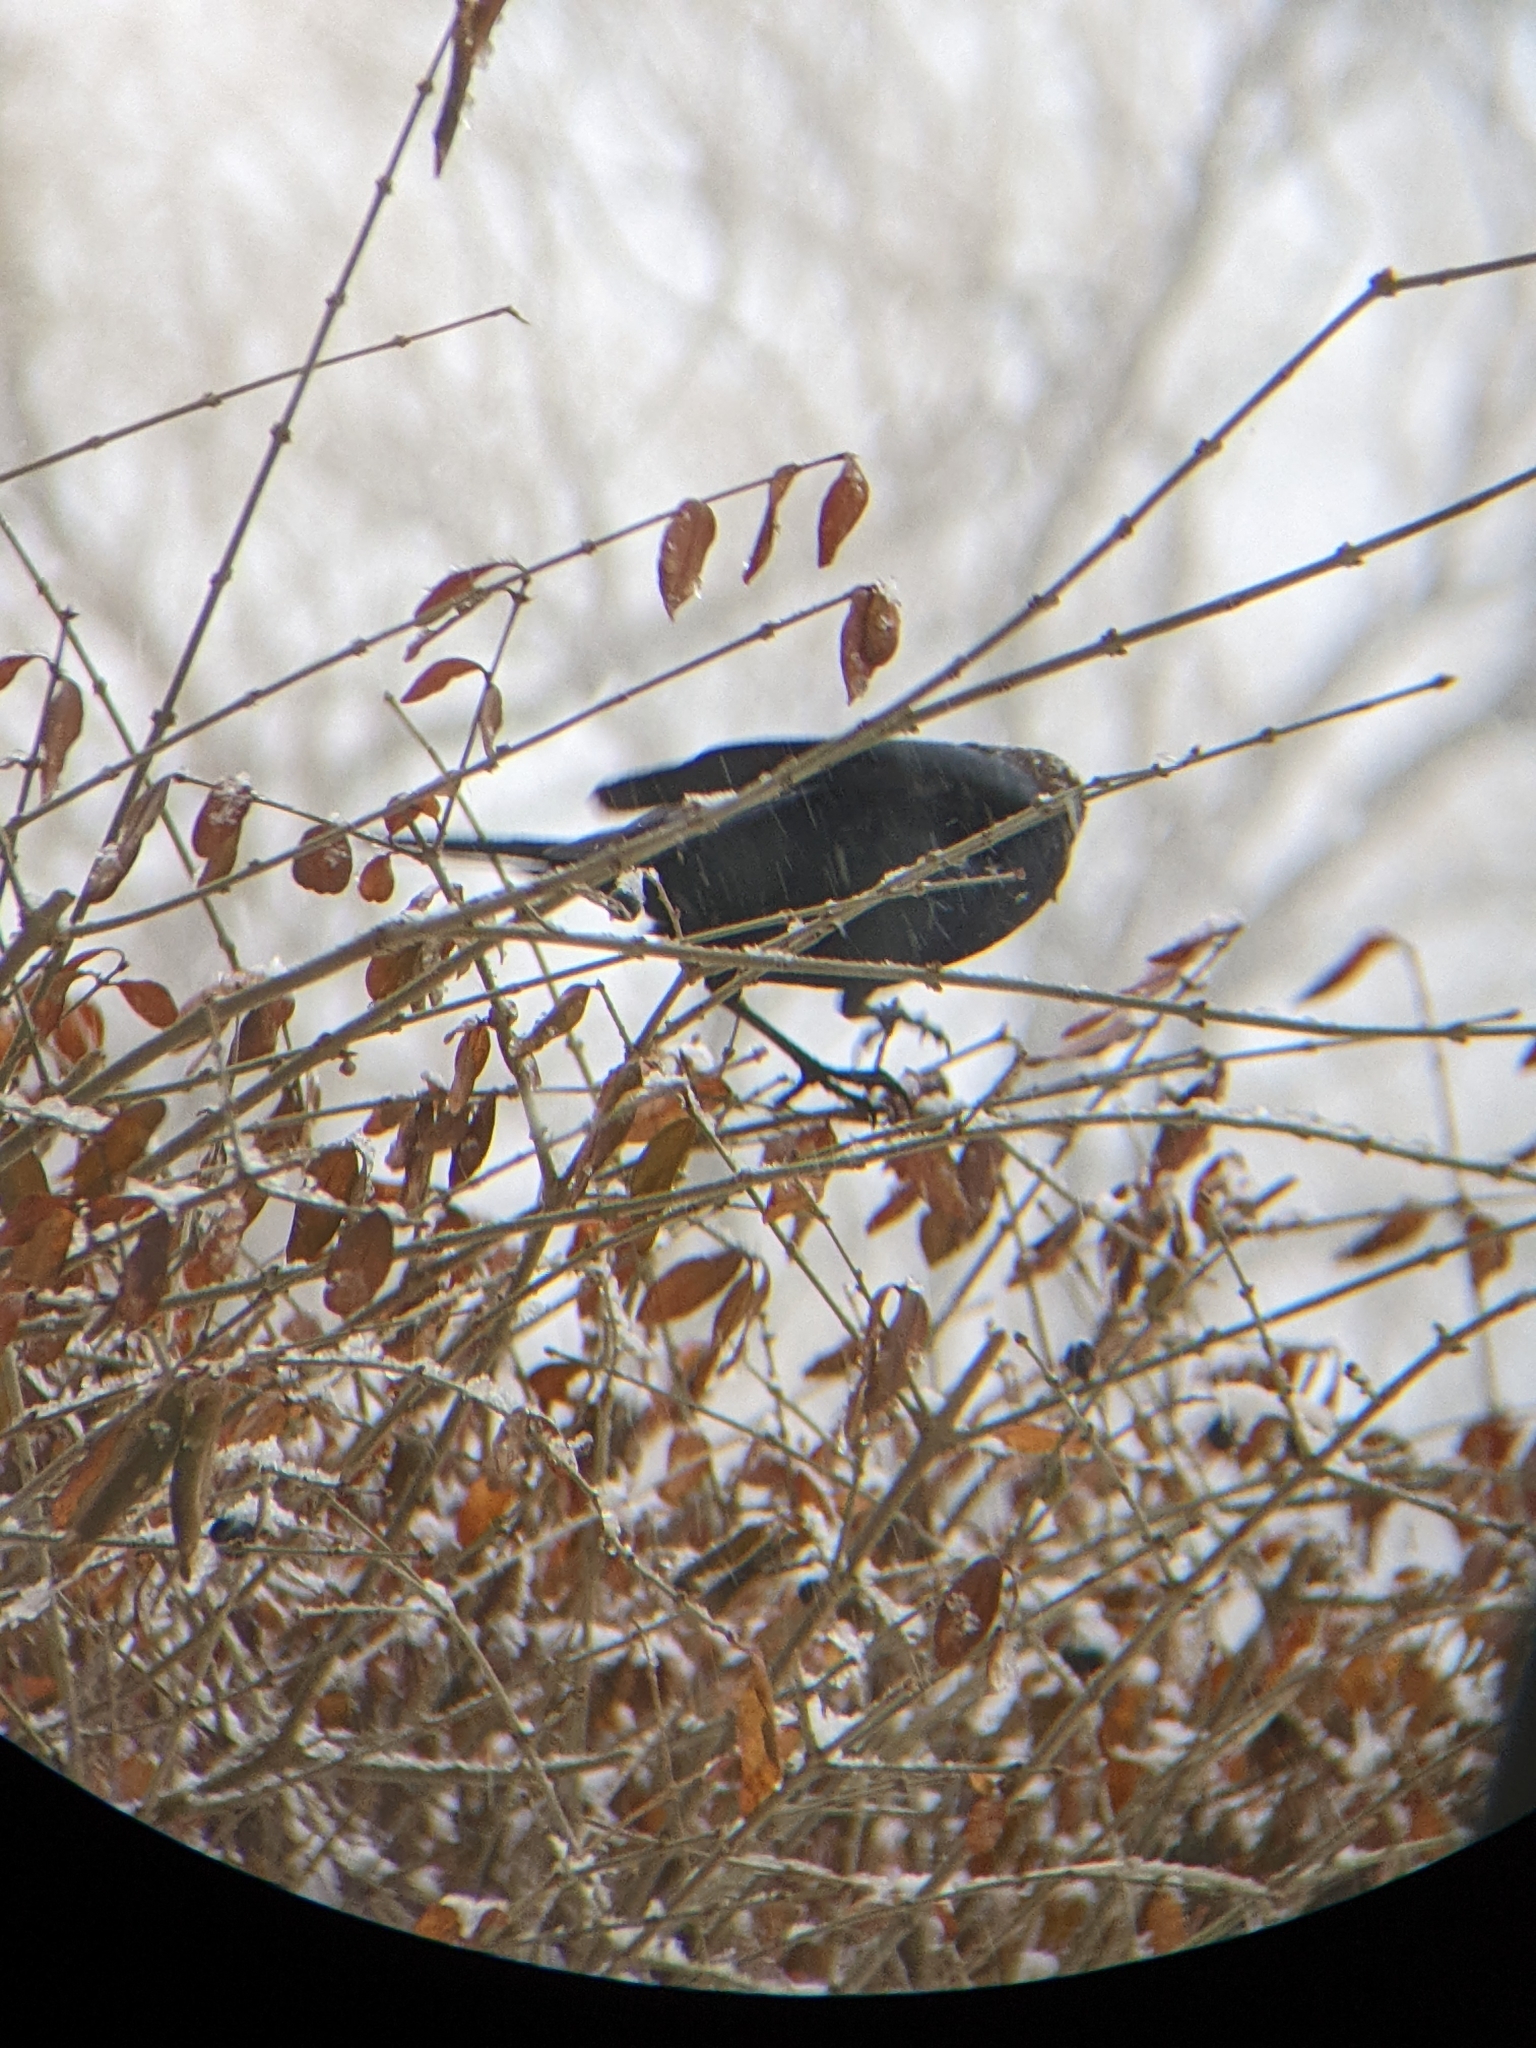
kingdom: Animalia
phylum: Chordata
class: Aves
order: Passeriformes
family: Icteridae
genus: Molothrus
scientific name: Molothrus ater
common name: Brown-headed cowbird
